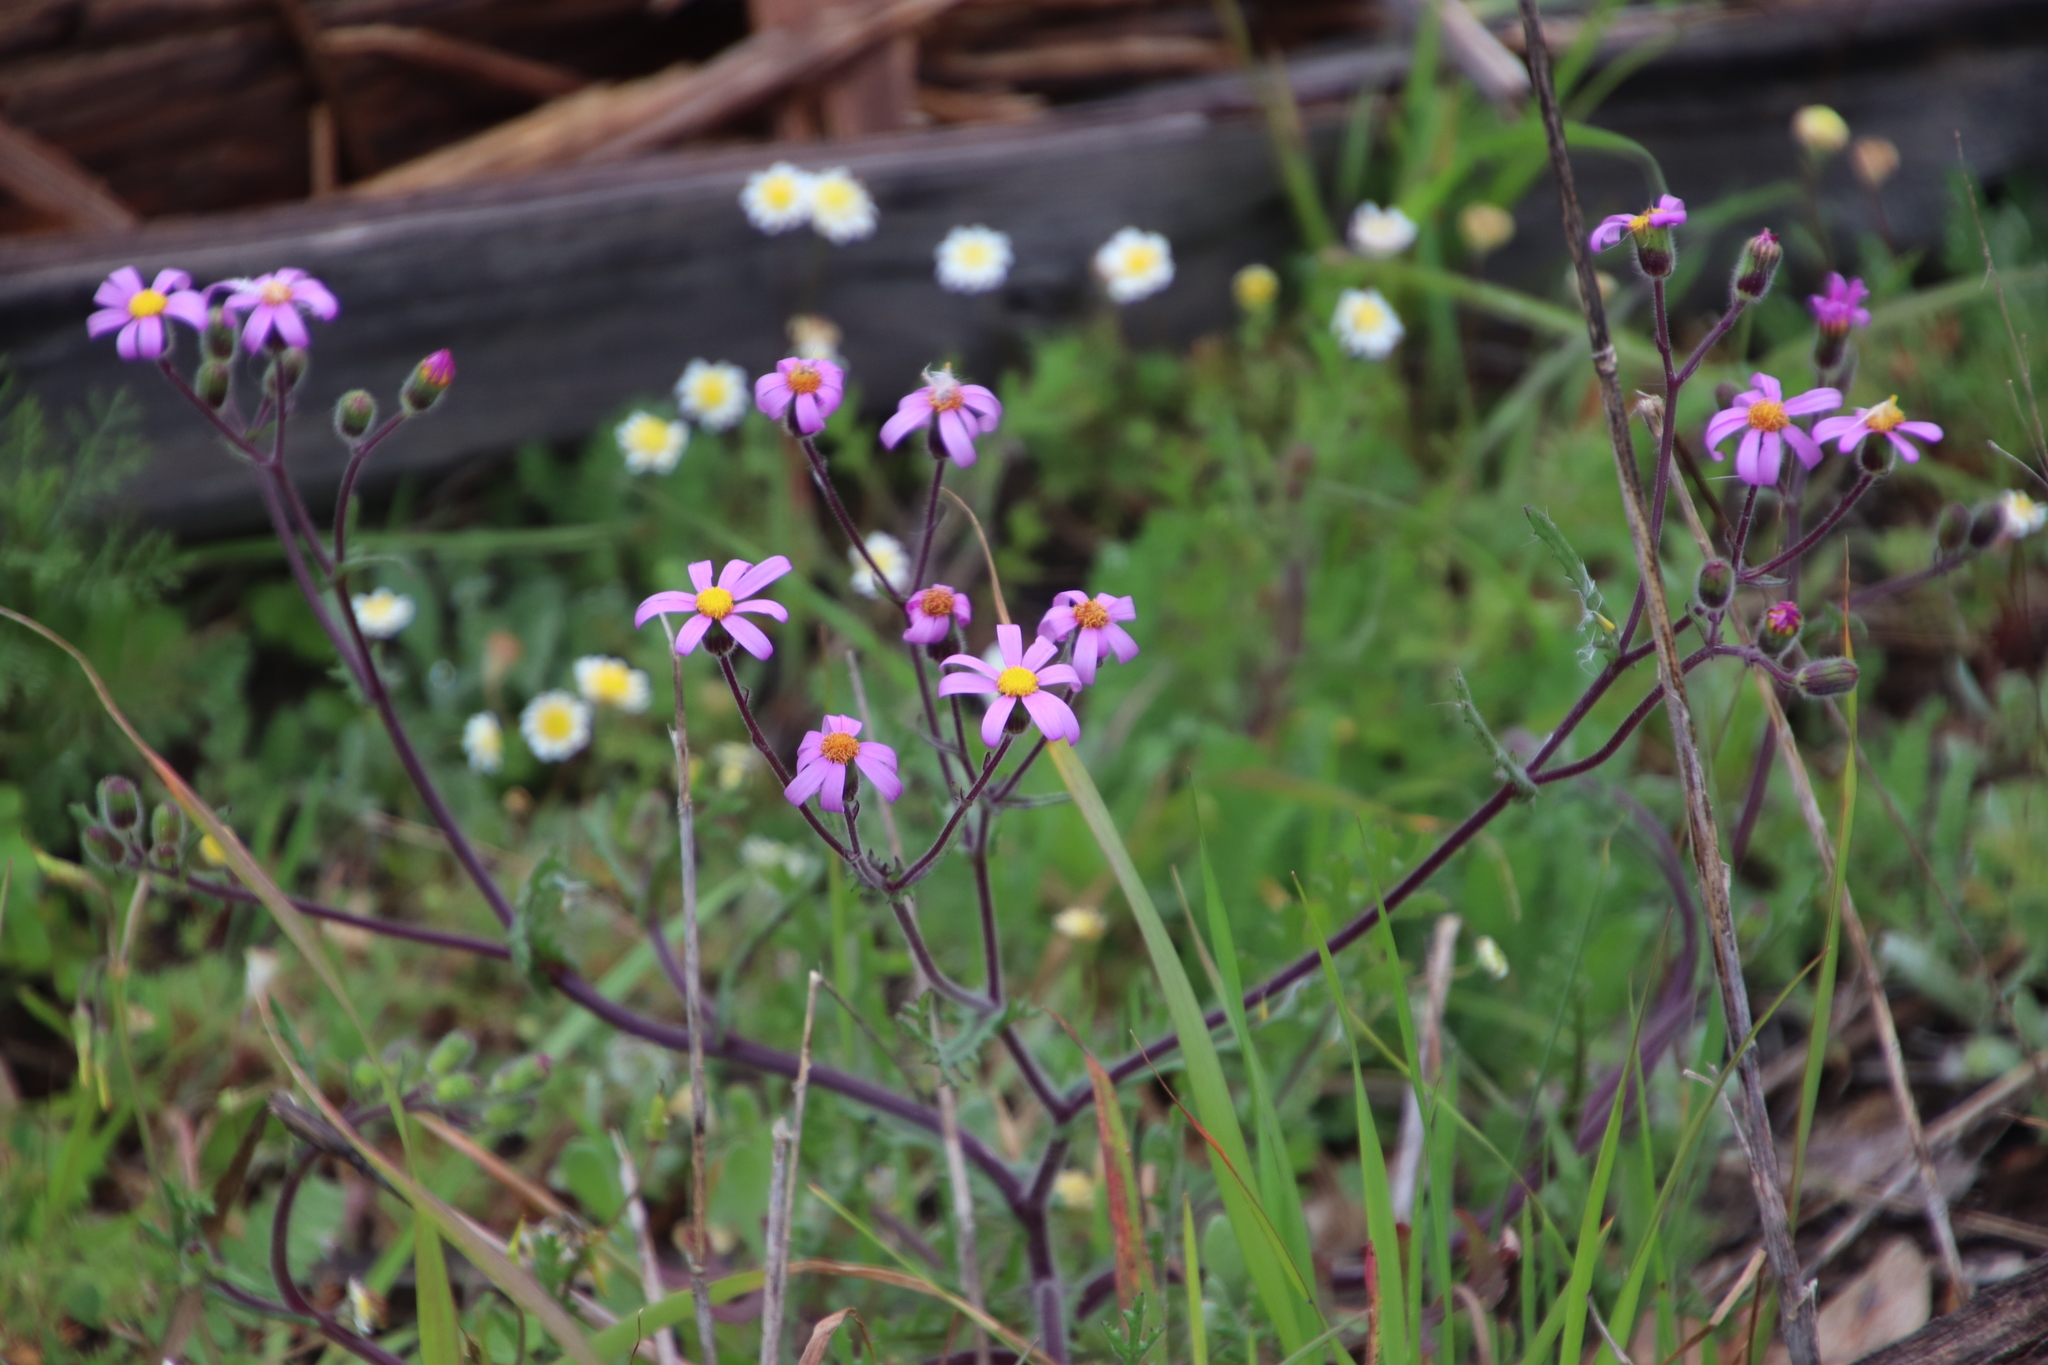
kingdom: Plantae
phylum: Tracheophyta
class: Magnoliopsida
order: Asterales
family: Asteraceae
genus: Senecio
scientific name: Senecio arenarius
